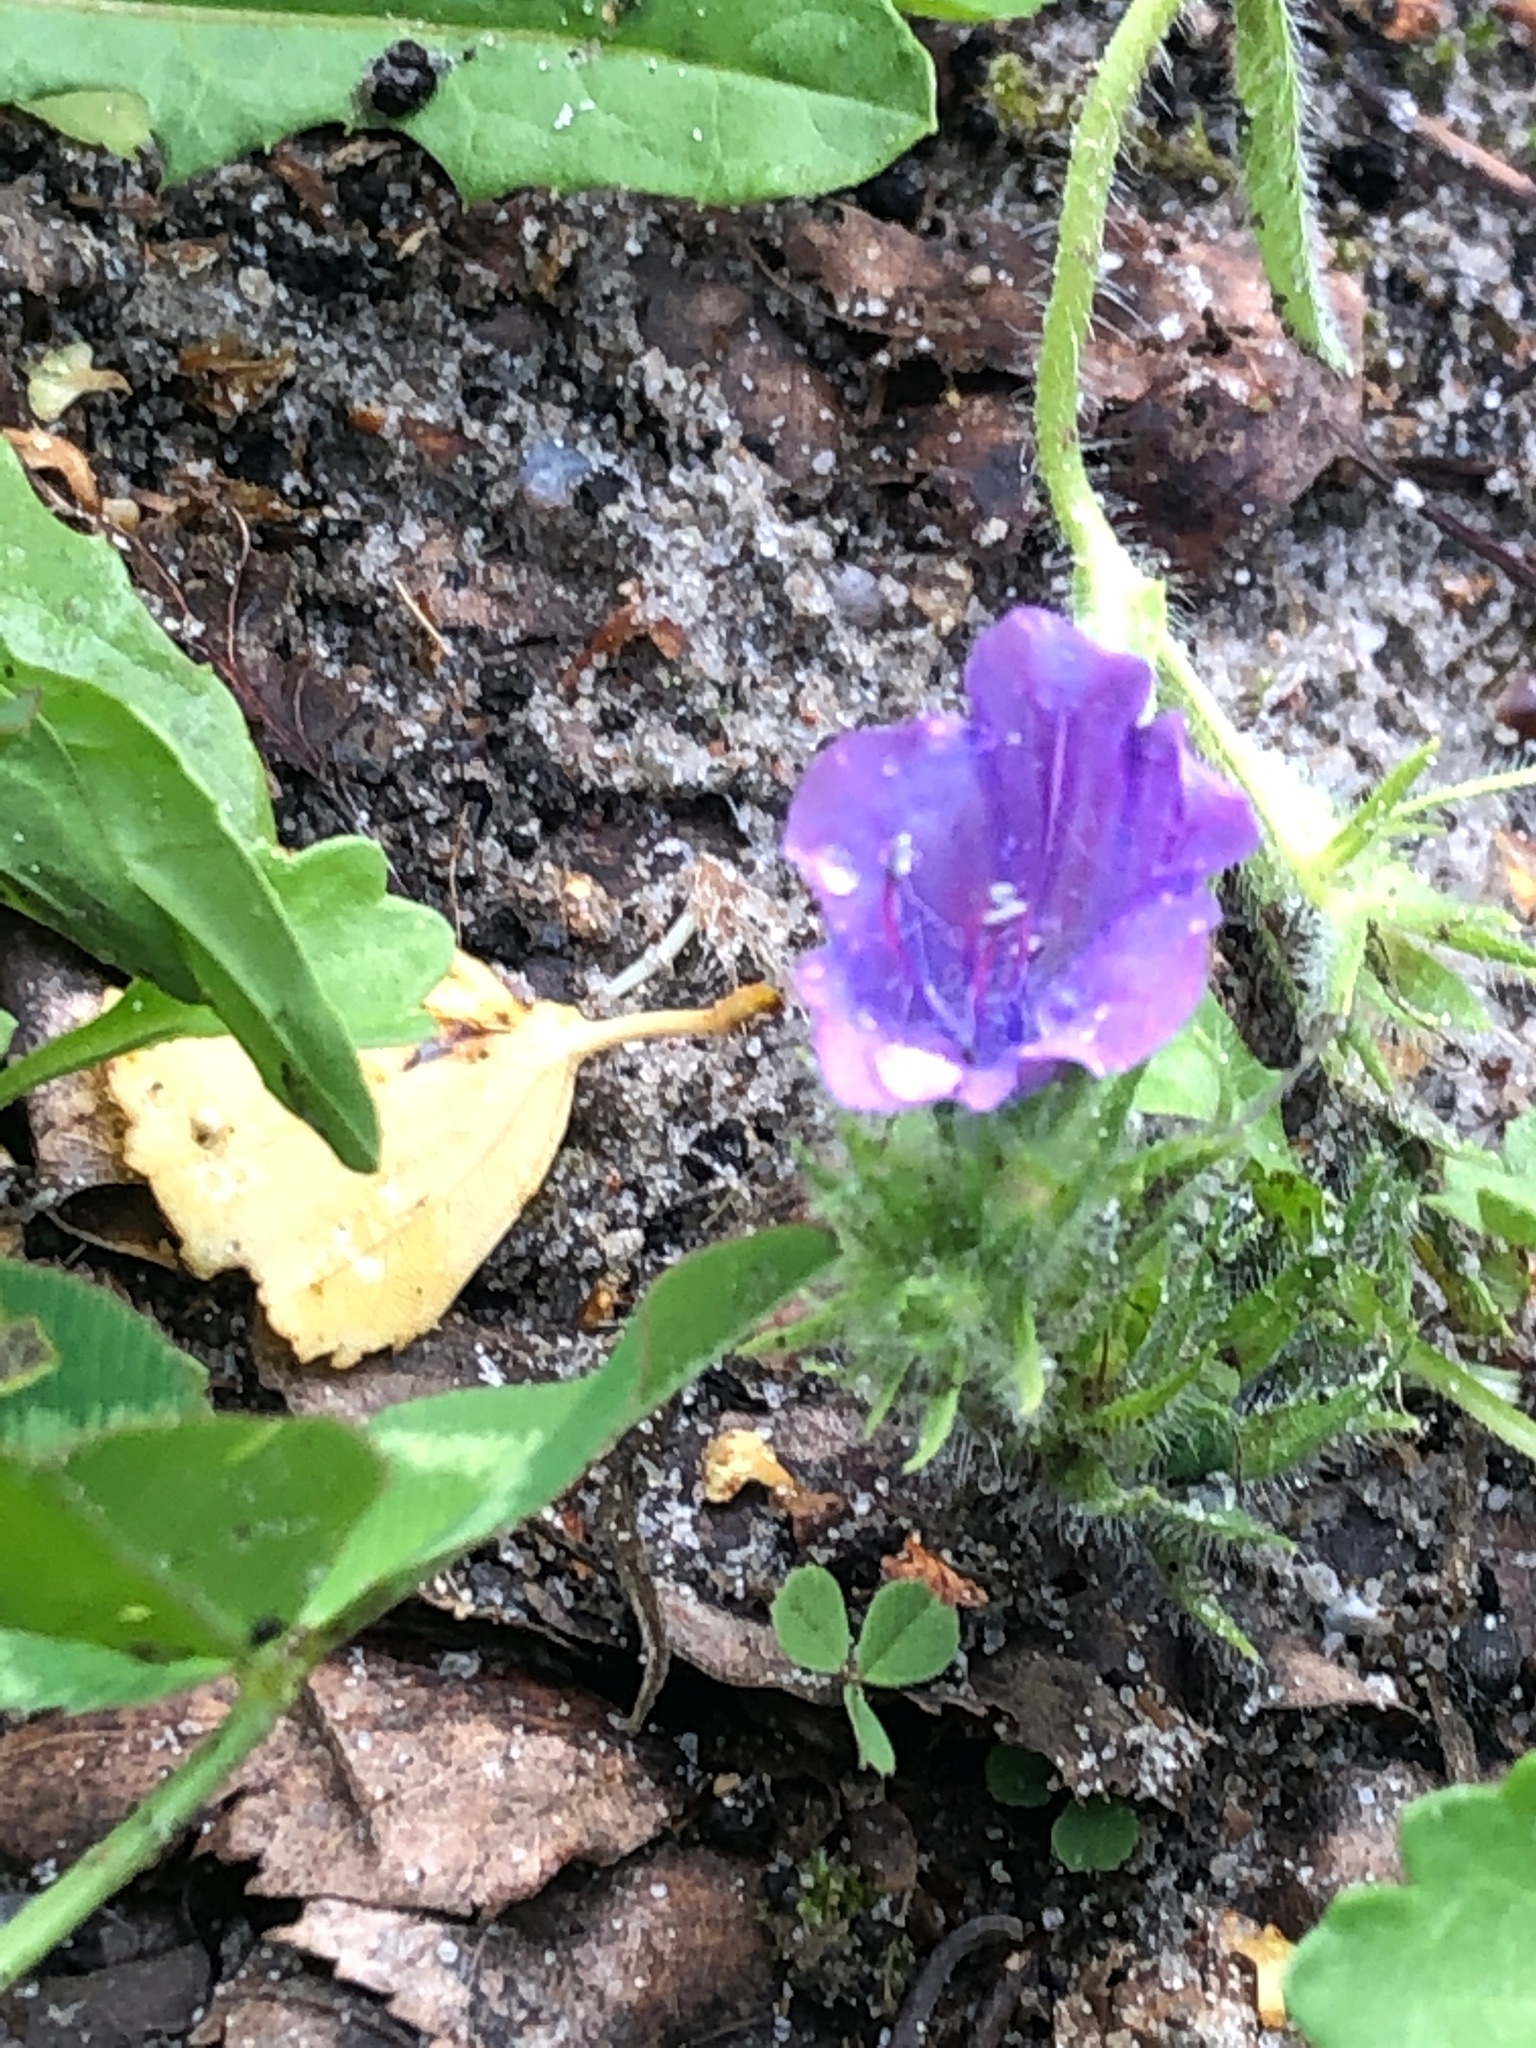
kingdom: Plantae
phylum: Tracheophyta
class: Magnoliopsida
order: Boraginales
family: Boraginaceae
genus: Echium
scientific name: Echium plantagineum
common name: Purple viper's-bugloss
